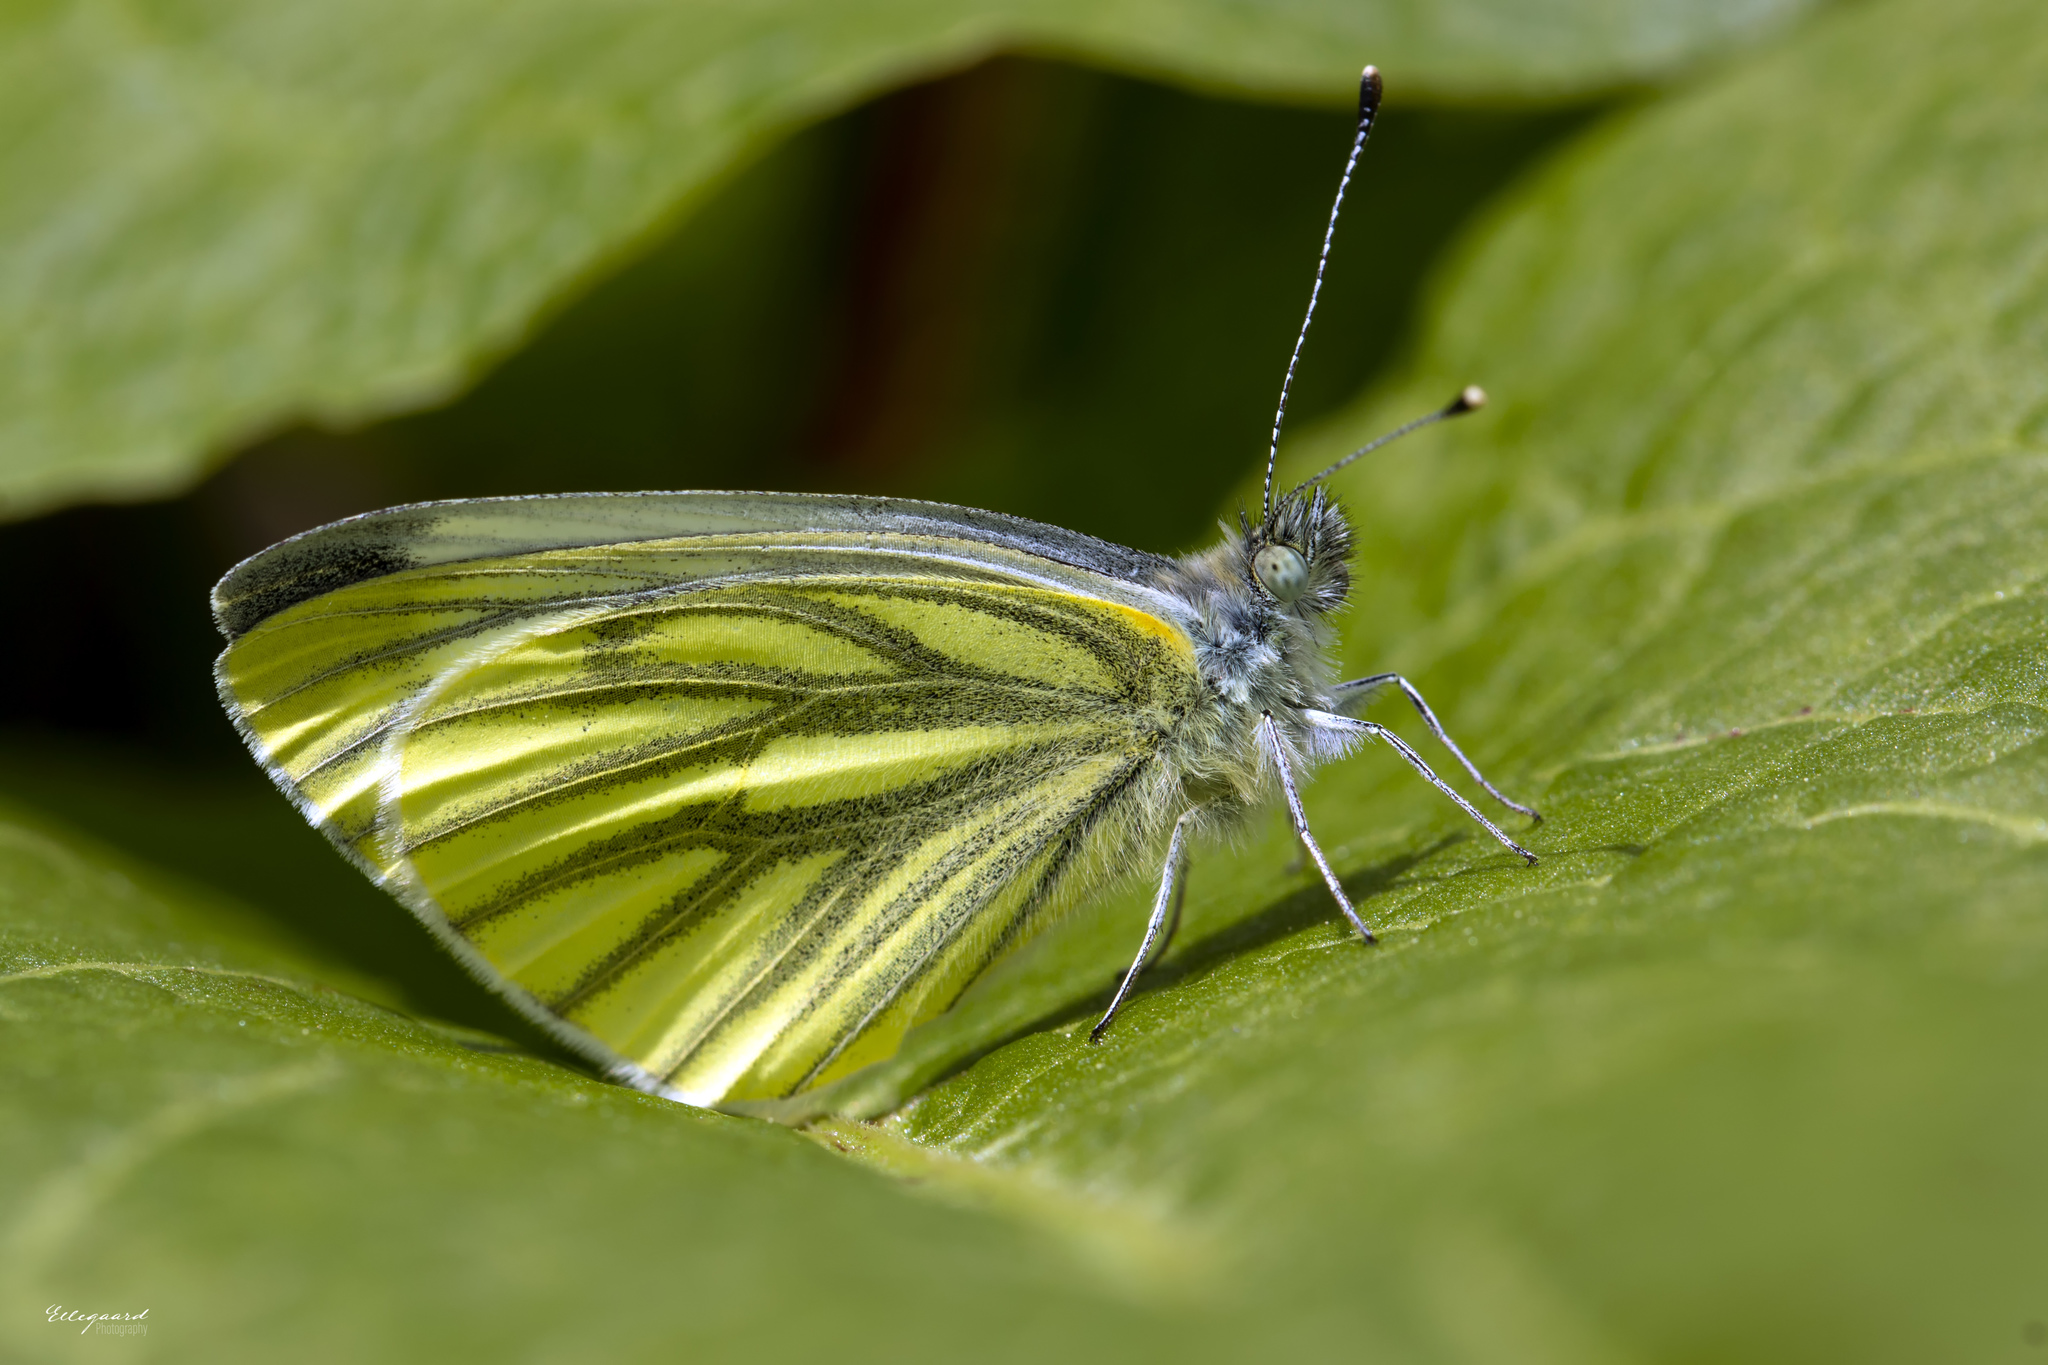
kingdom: Animalia
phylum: Arthropoda
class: Insecta
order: Lepidoptera
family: Pieridae
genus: Pieris
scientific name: Pieris napi
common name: Green-veined white
